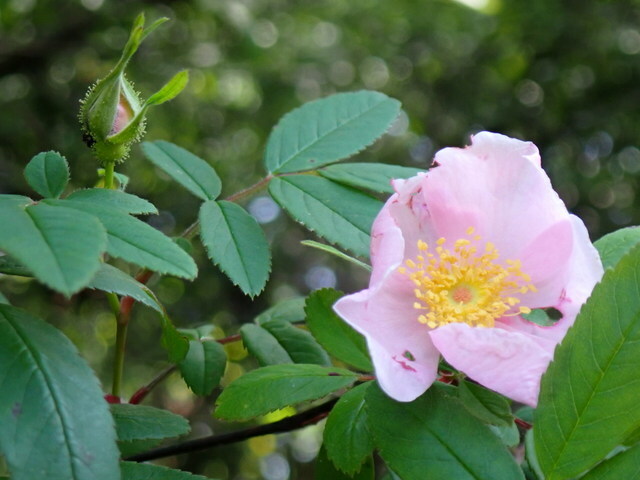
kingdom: Plantae
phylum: Tracheophyta
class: Magnoliopsida
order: Rosales
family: Rosaceae
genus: Rosa
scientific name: Rosa palustris
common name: Swamp rose
